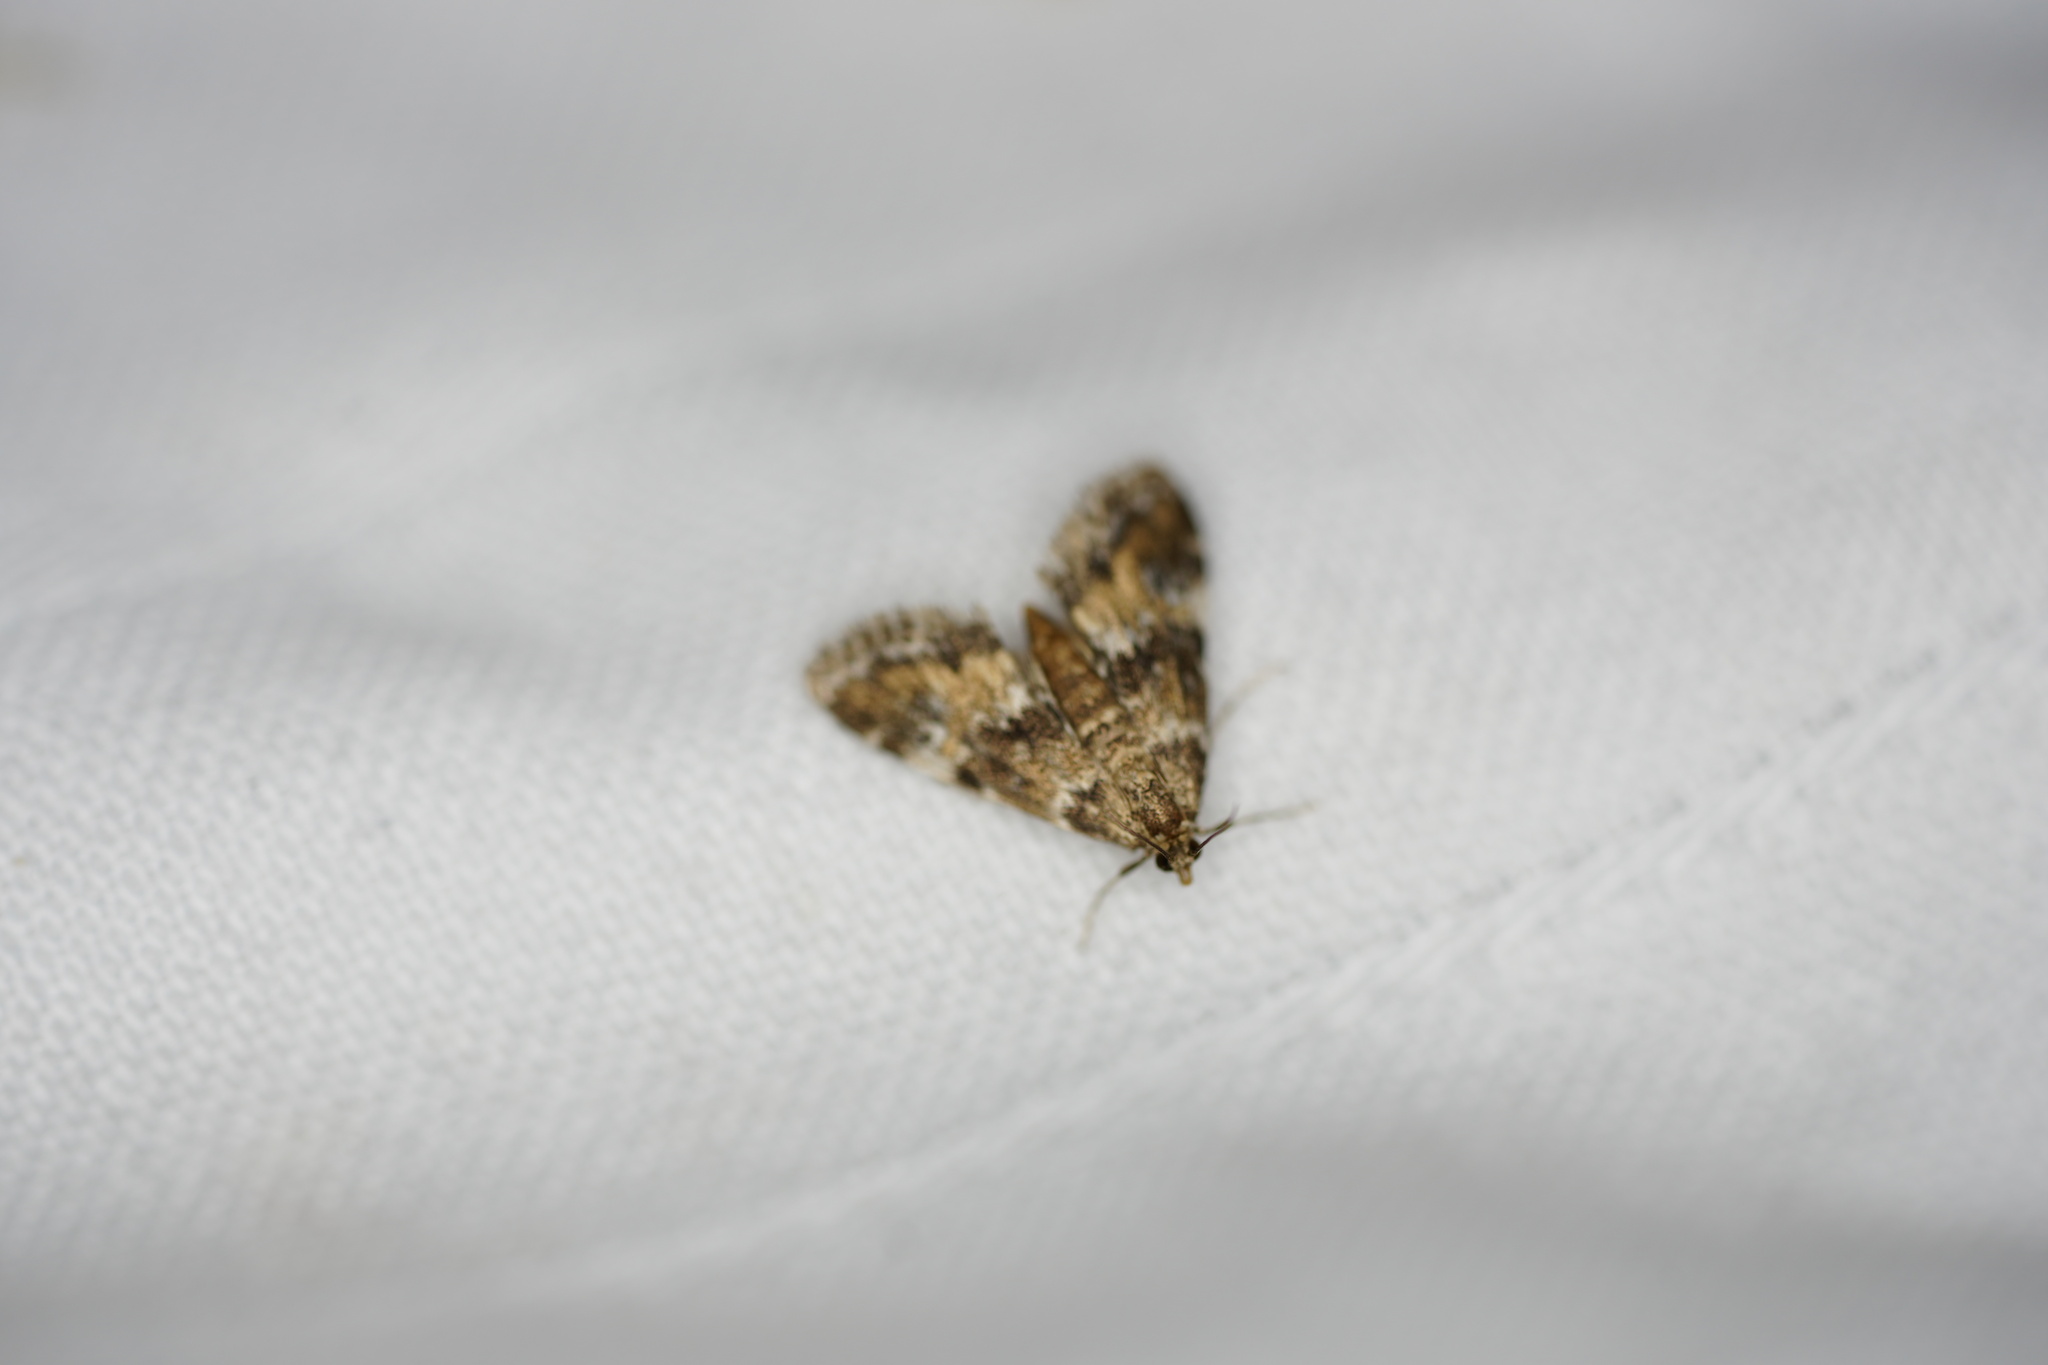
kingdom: Animalia
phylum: Arthropoda
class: Insecta
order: Lepidoptera
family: Crambidae
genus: Elophila
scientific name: Elophila obliteralis
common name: Waterlily leafcutter moth
